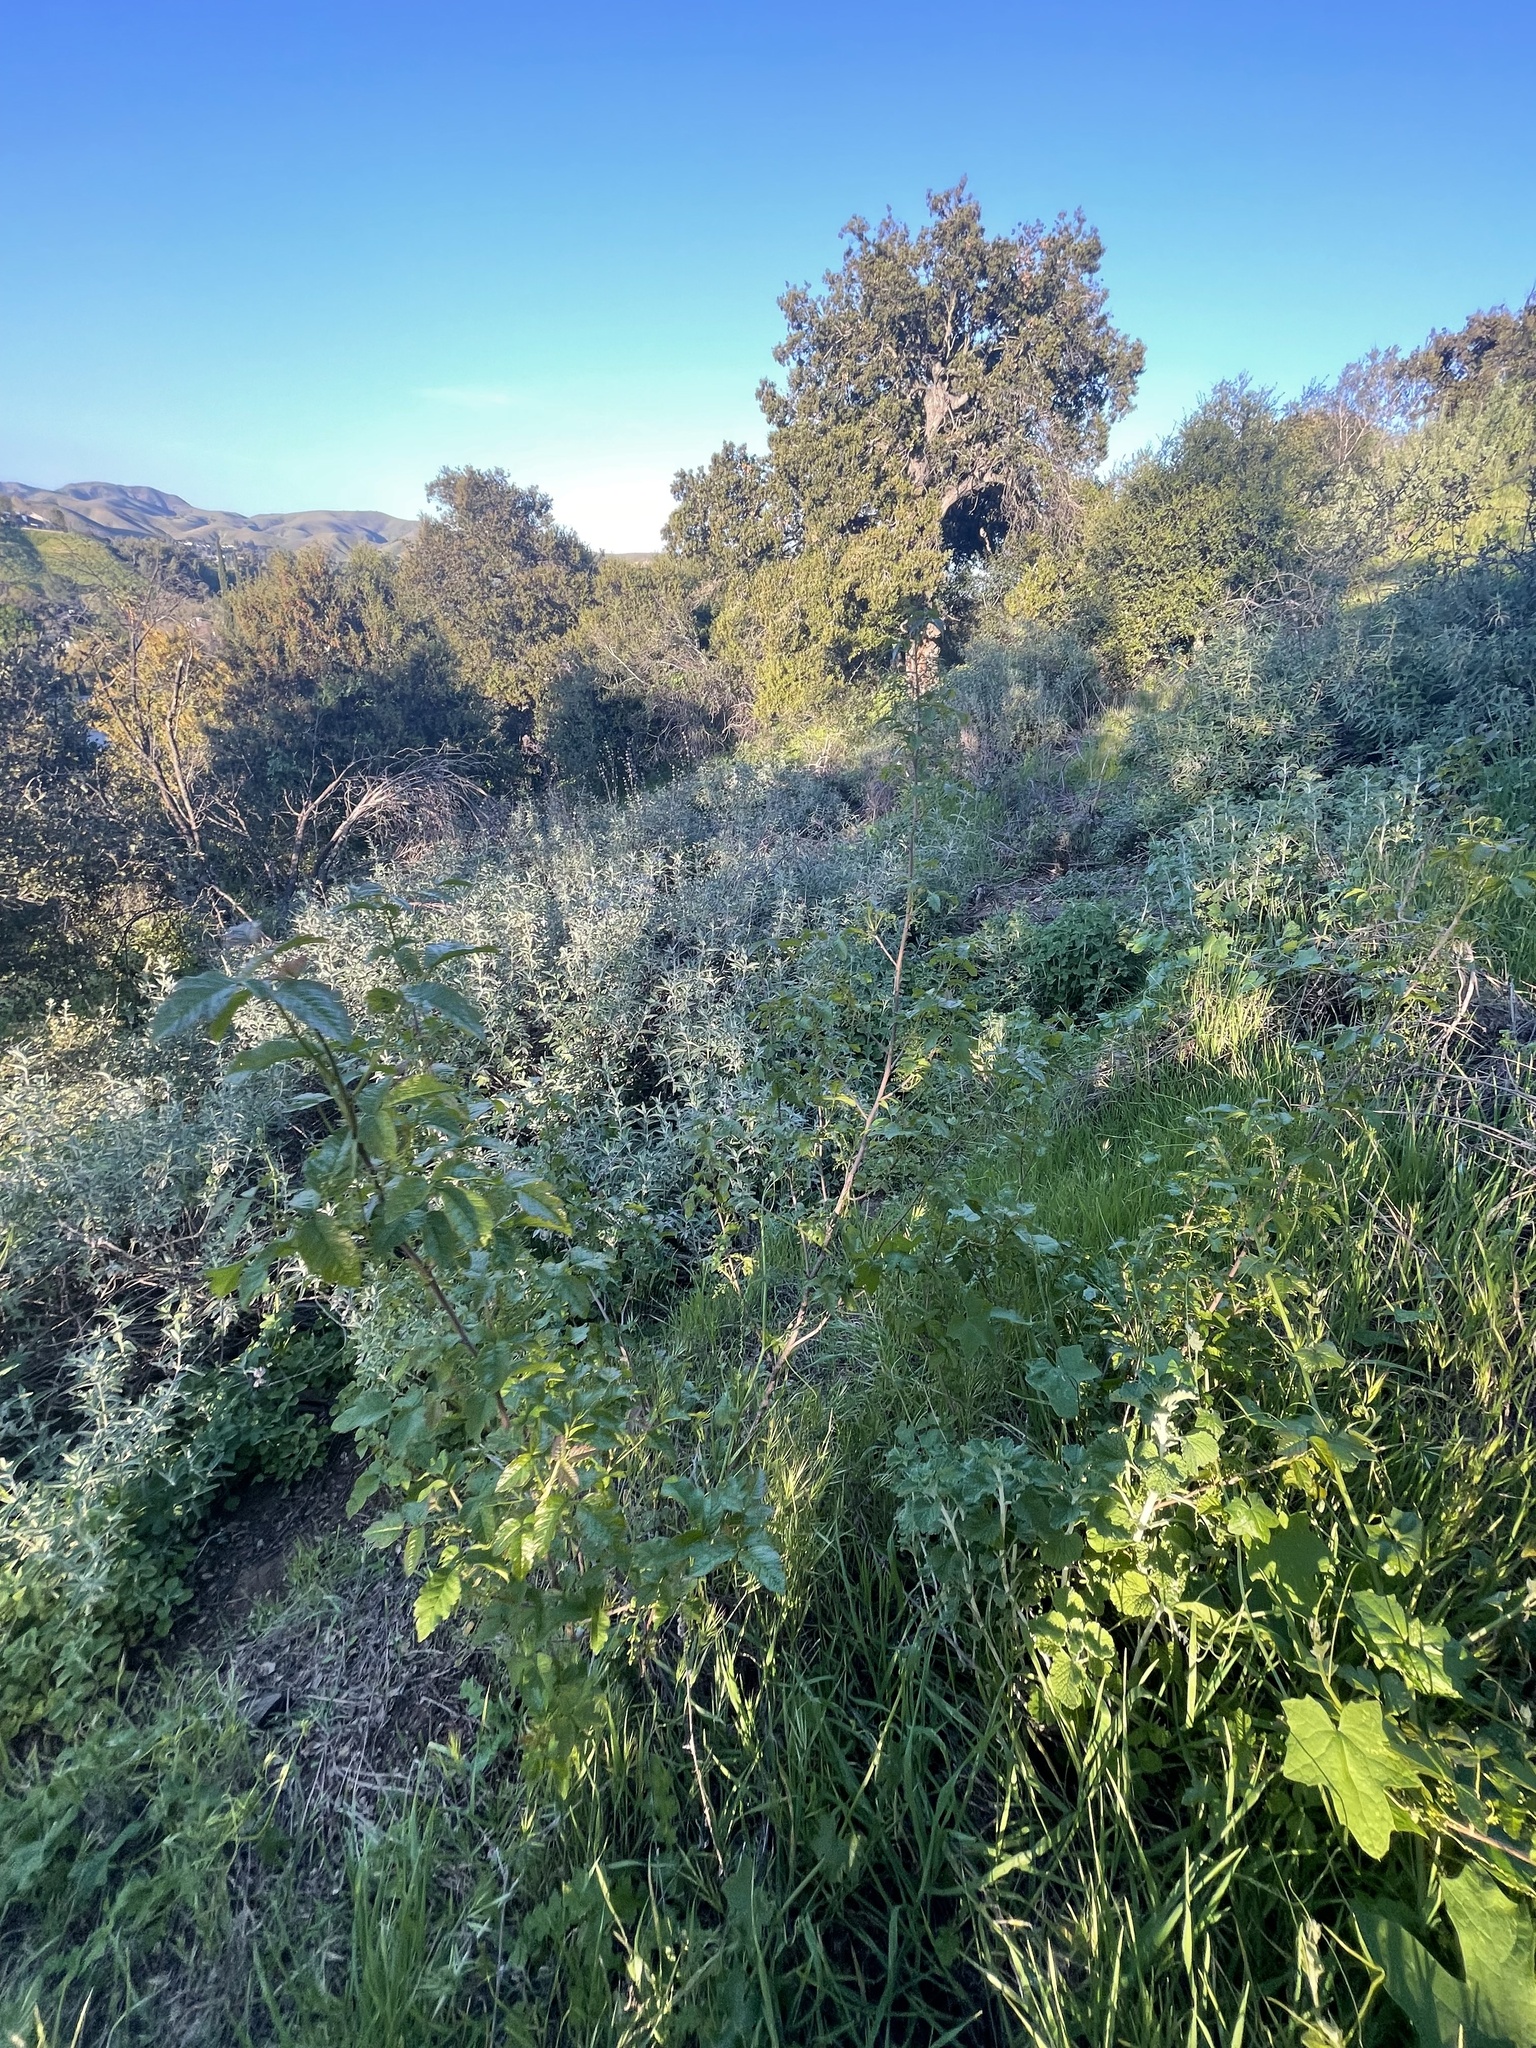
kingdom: Plantae
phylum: Tracheophyta
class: Magnoliopsida
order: Sapindales
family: Anacardiaceae
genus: Toxicodendron
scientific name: Toxicodendron diversilobum
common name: Pacific poison-oak
